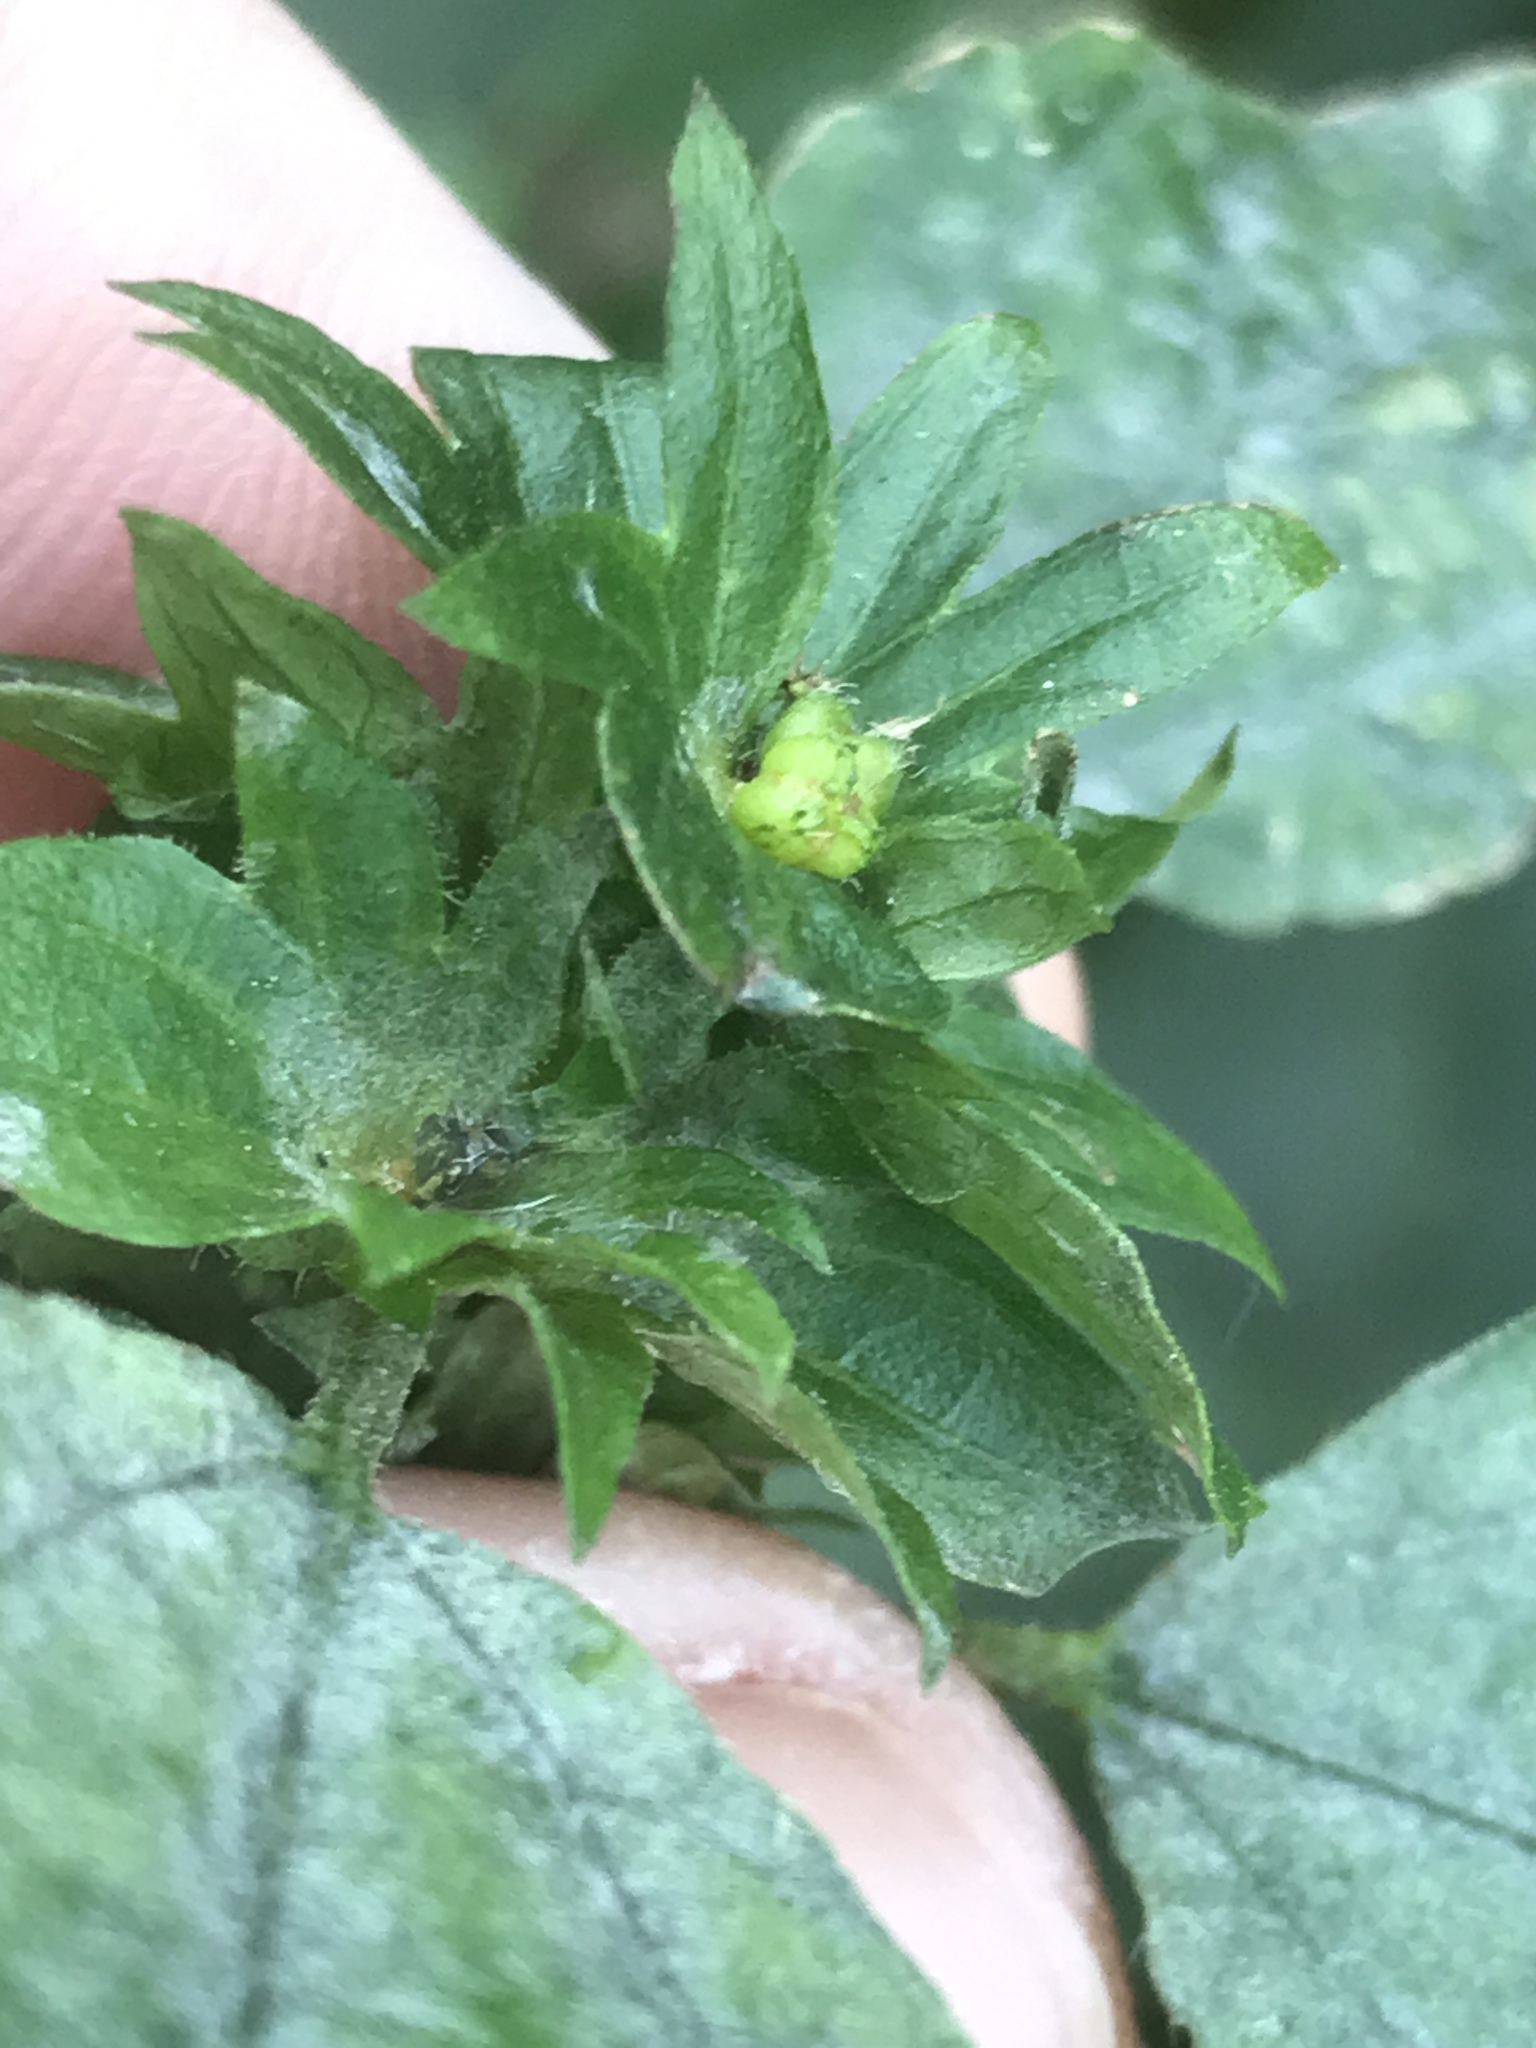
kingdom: Plantae
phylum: Tracheophyta
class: Magnoliopsida
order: Malpighiales
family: Euphorbiaceae
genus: Acalypha
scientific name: Acalypha rhomboidea
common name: Rhombic copperleaf
